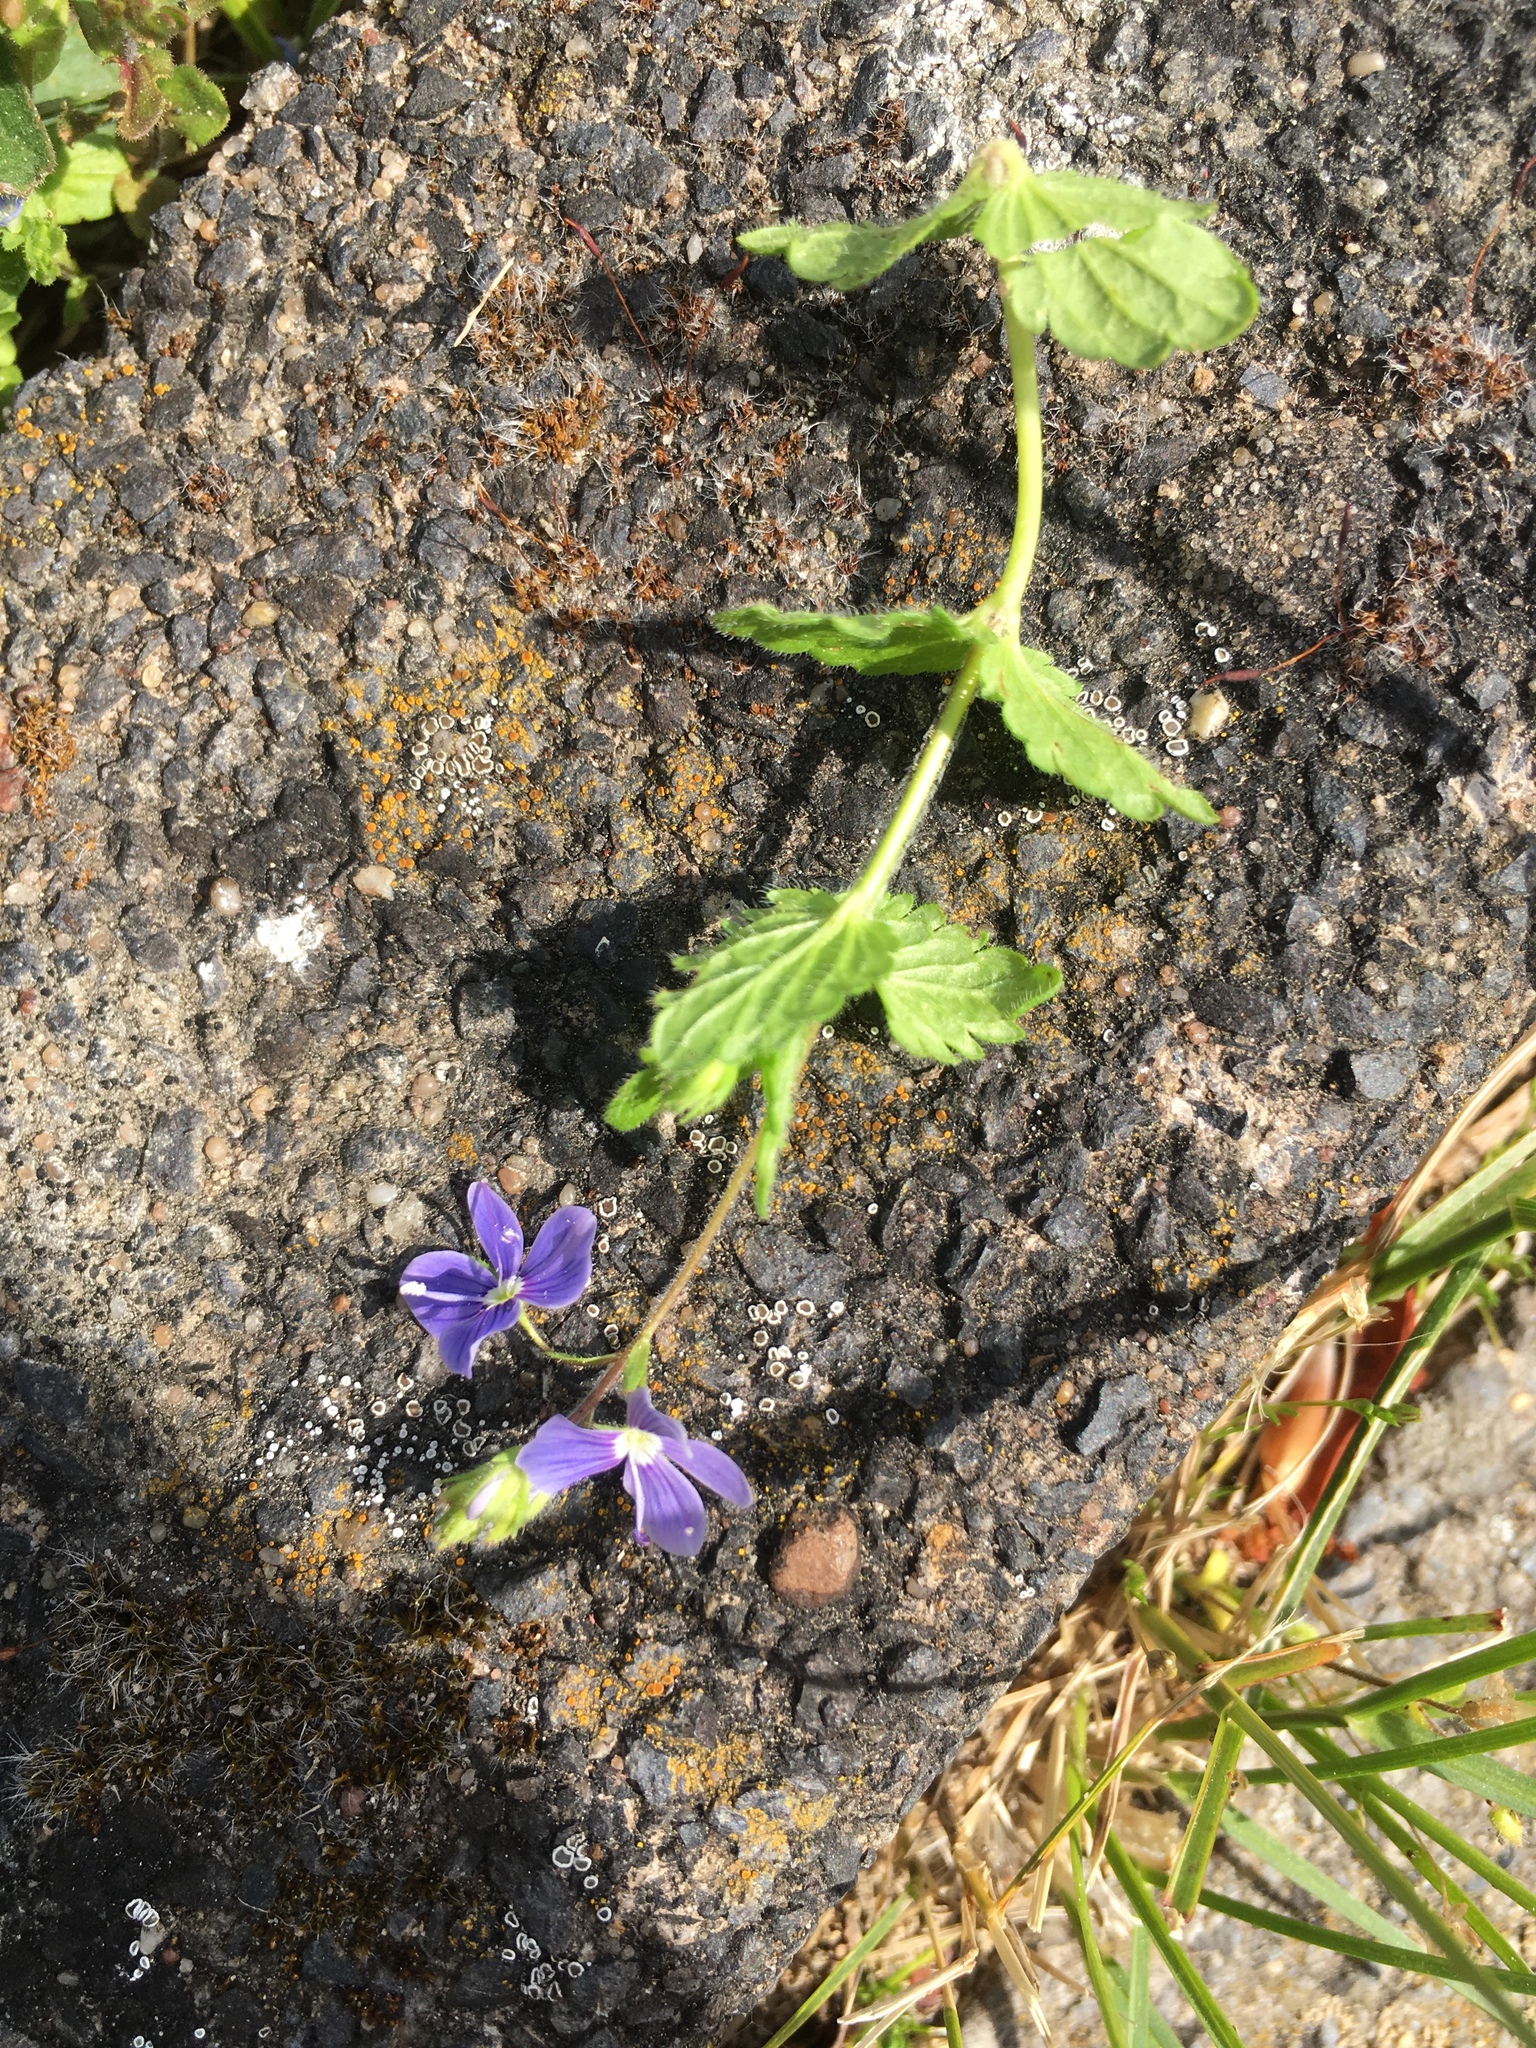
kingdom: Plantae
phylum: Tracheophyta
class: Magnoliopsida
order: Lamiales
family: Plantaginaceae
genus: Veronica
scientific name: Veronica chamaedrys
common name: Germander speedwell
